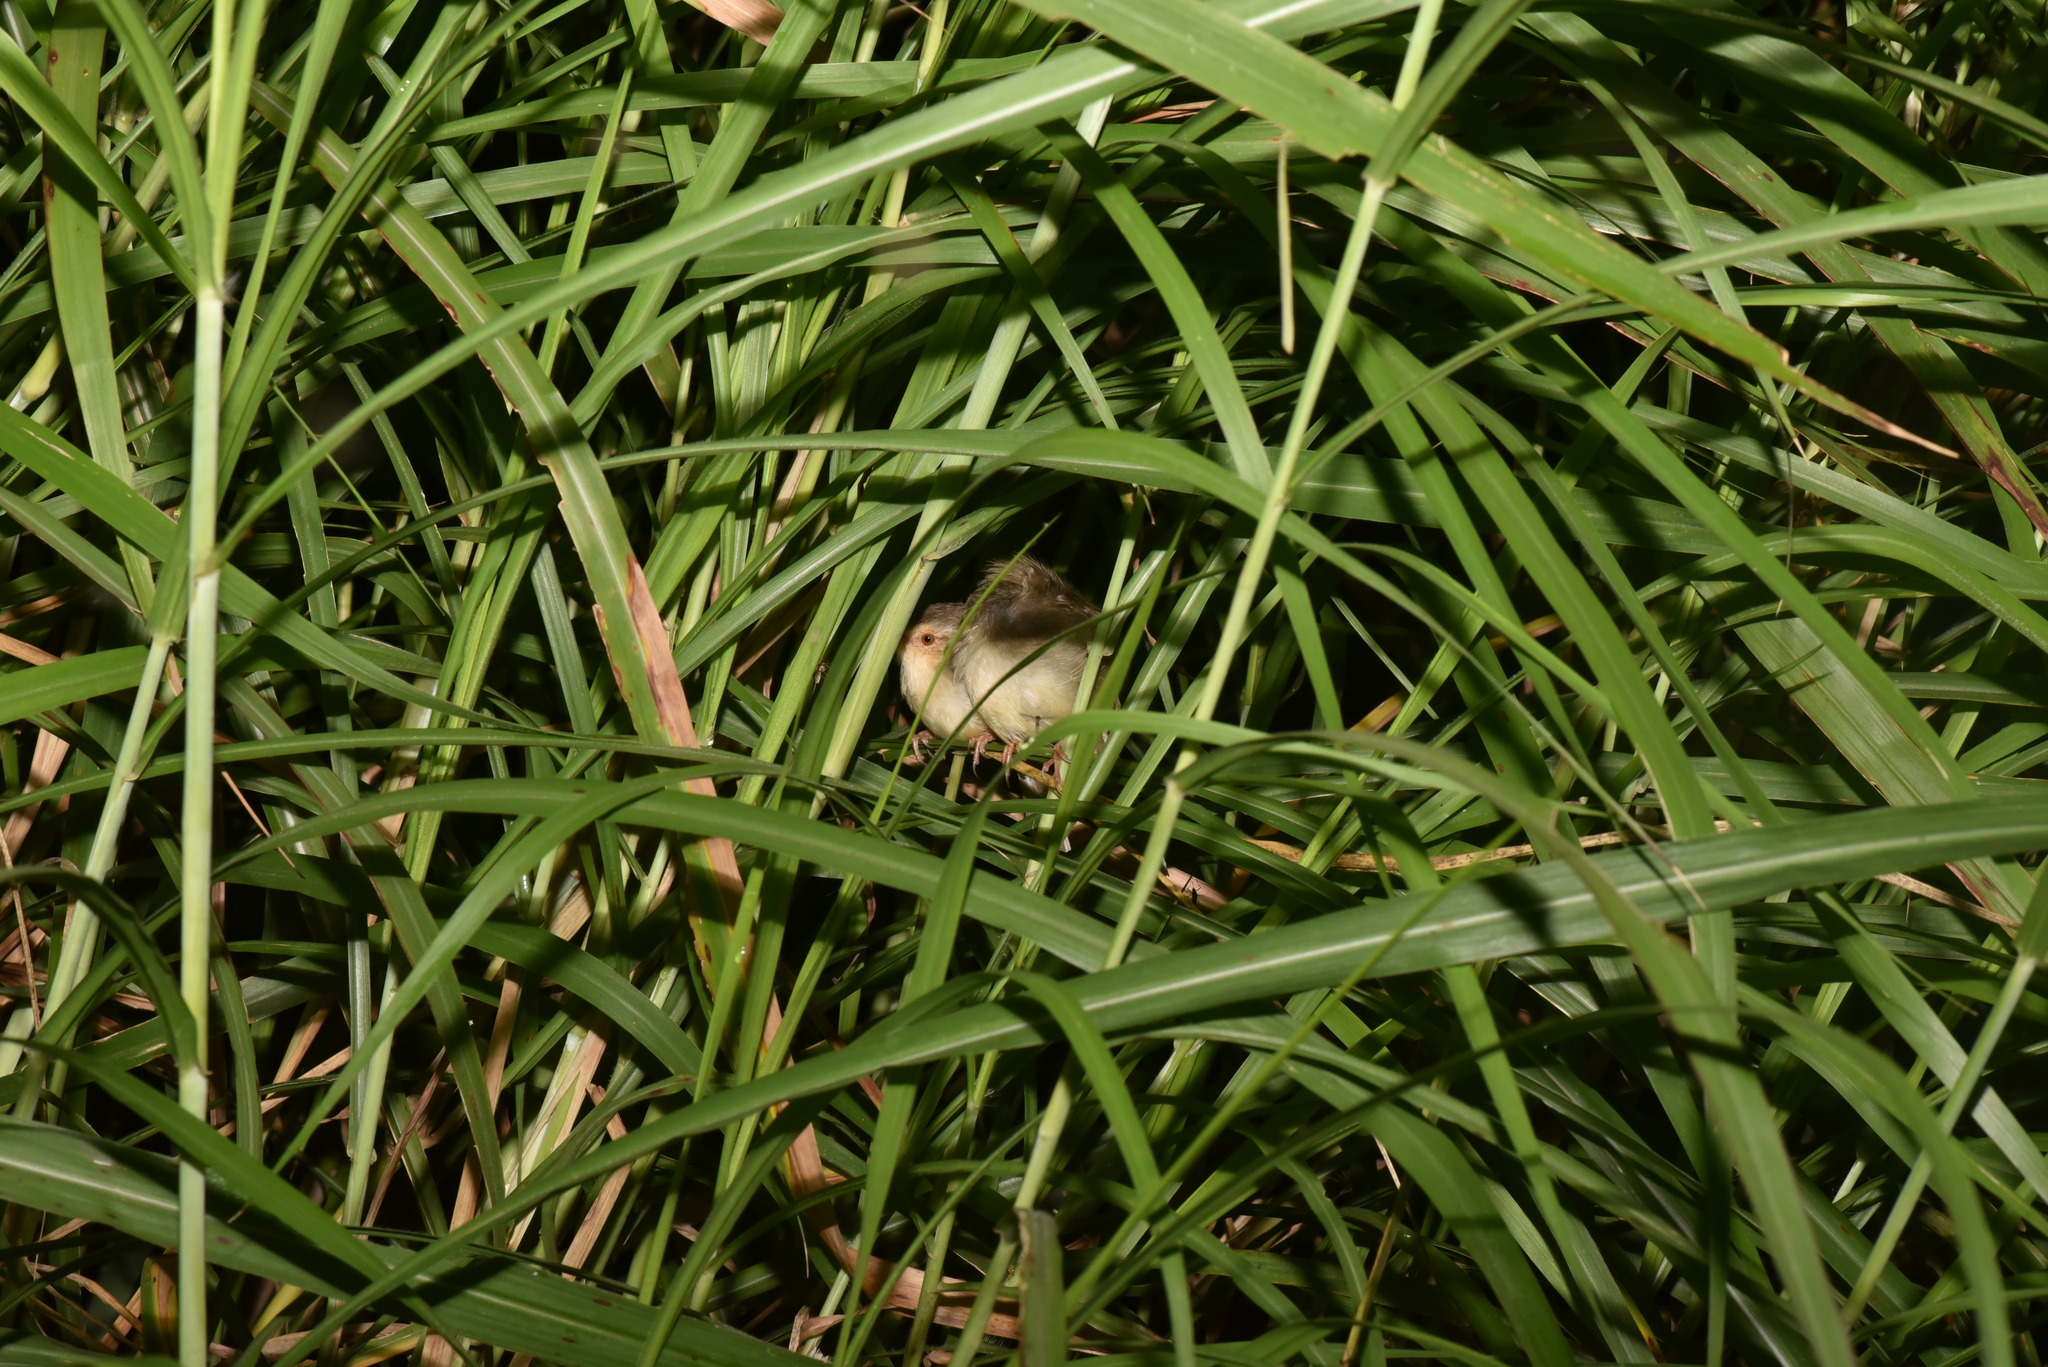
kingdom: Animalia
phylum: Chordata
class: Aves
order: Passeriformes
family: Cisticolidae
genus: Prinia
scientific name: Prinia inornata
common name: Plain prinia
